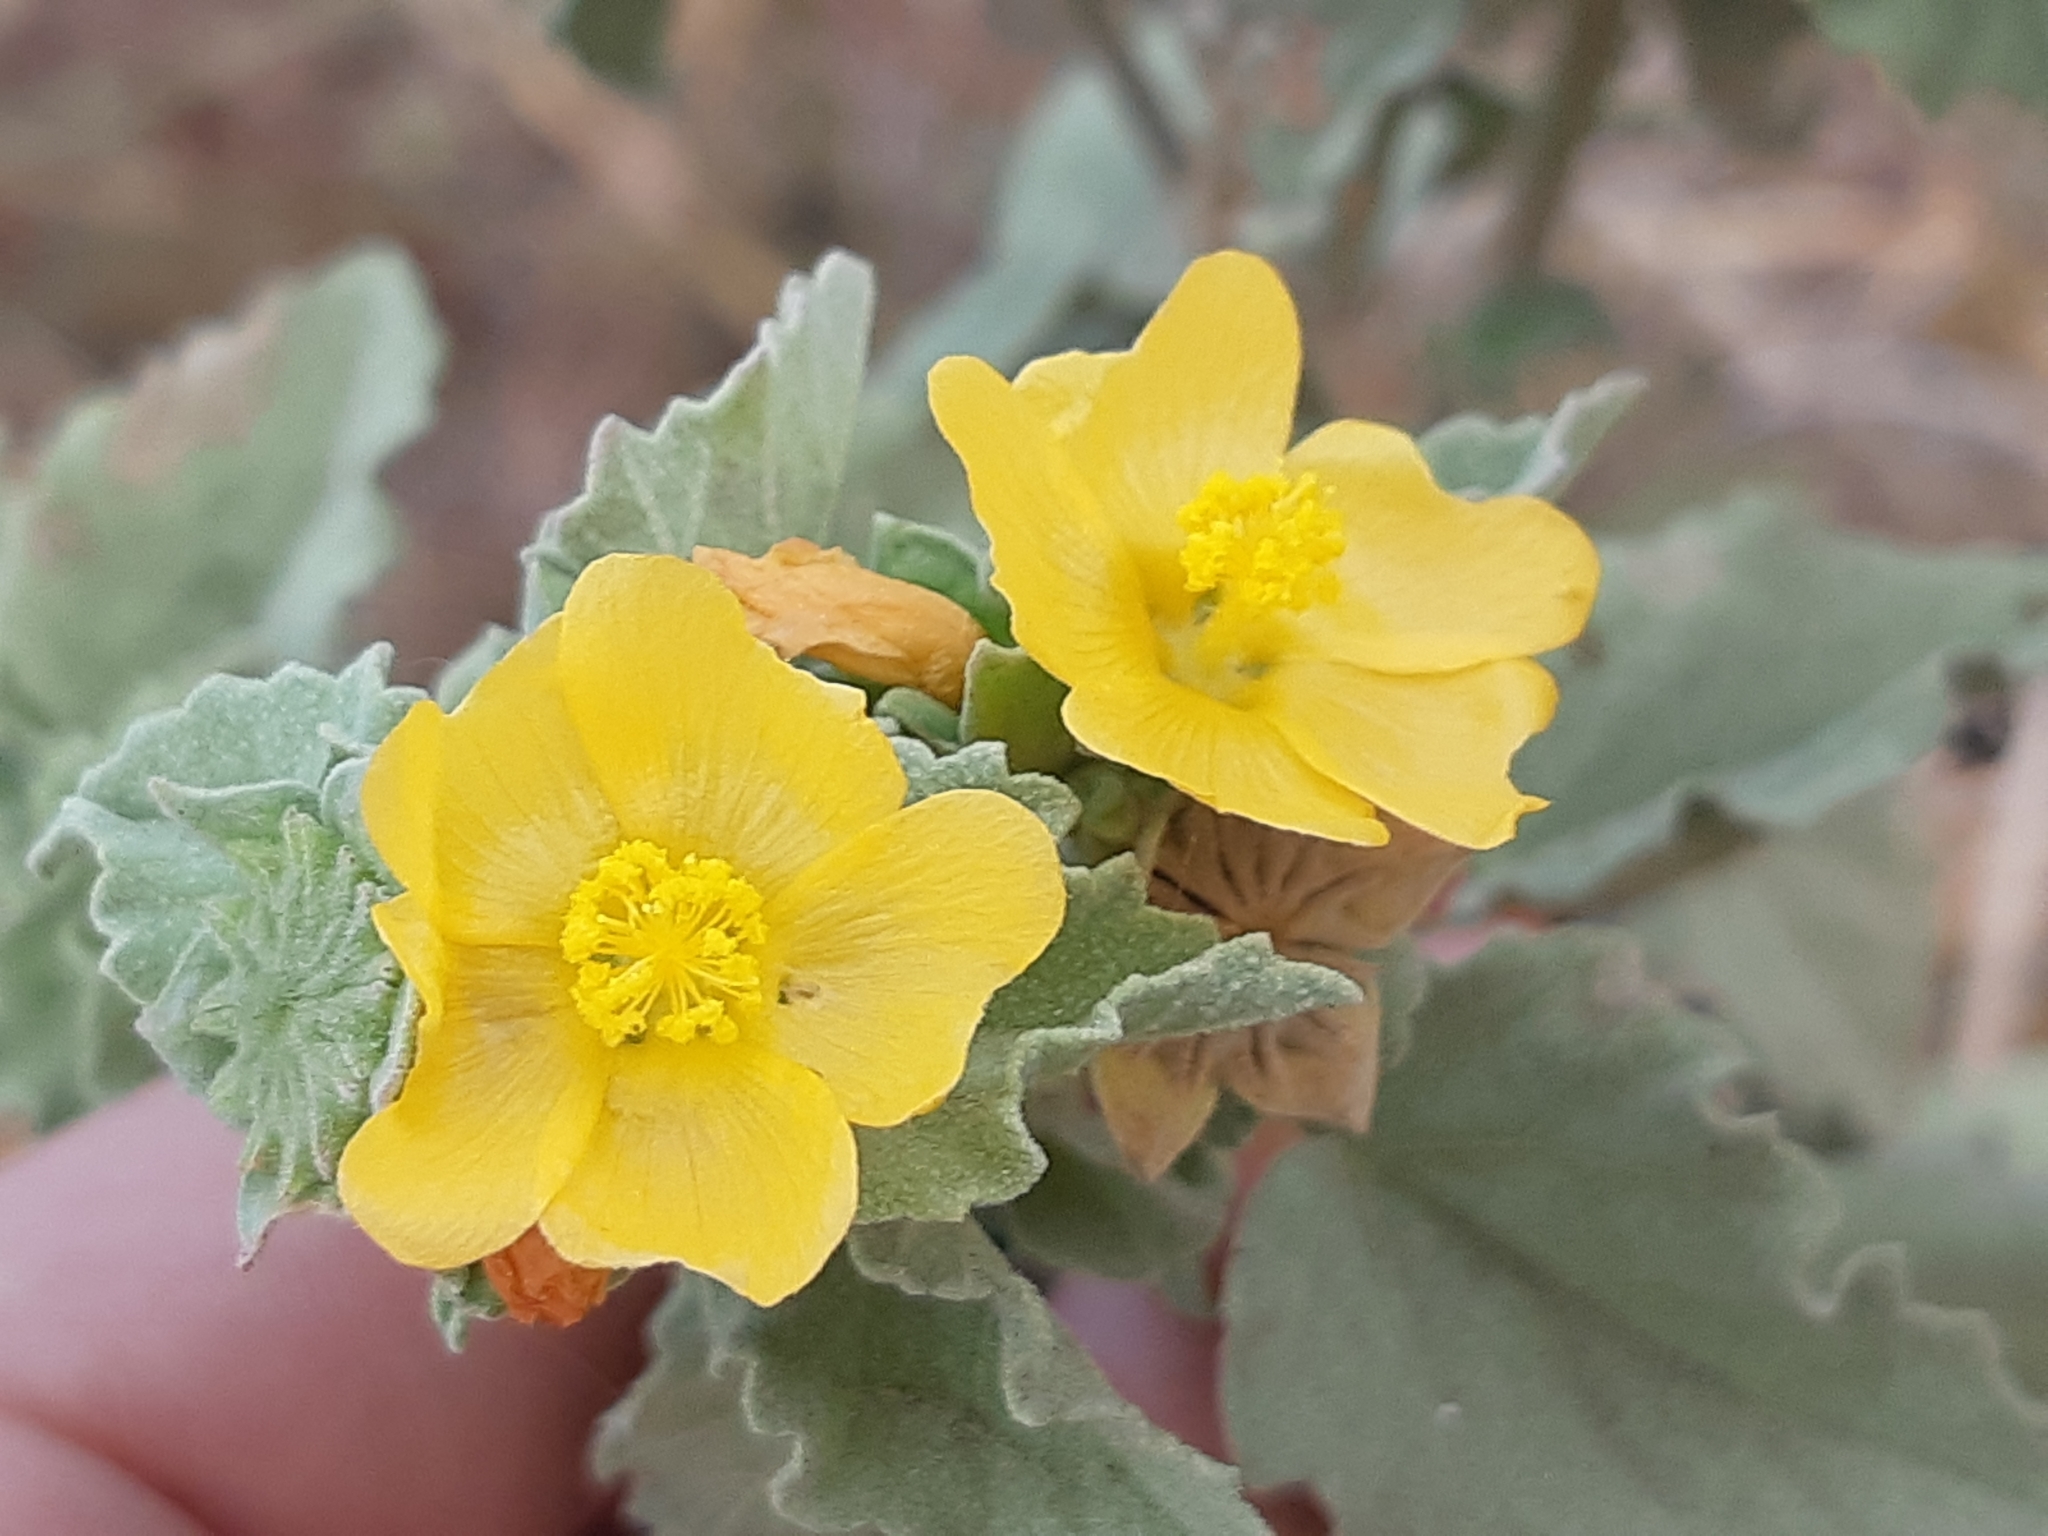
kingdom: Plantae
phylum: Tracheophyta
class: Magnoliopsida
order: Malvales
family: Malvaceae
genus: Malvastrum
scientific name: Malvastrum americanum
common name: Spiked malvastrum
